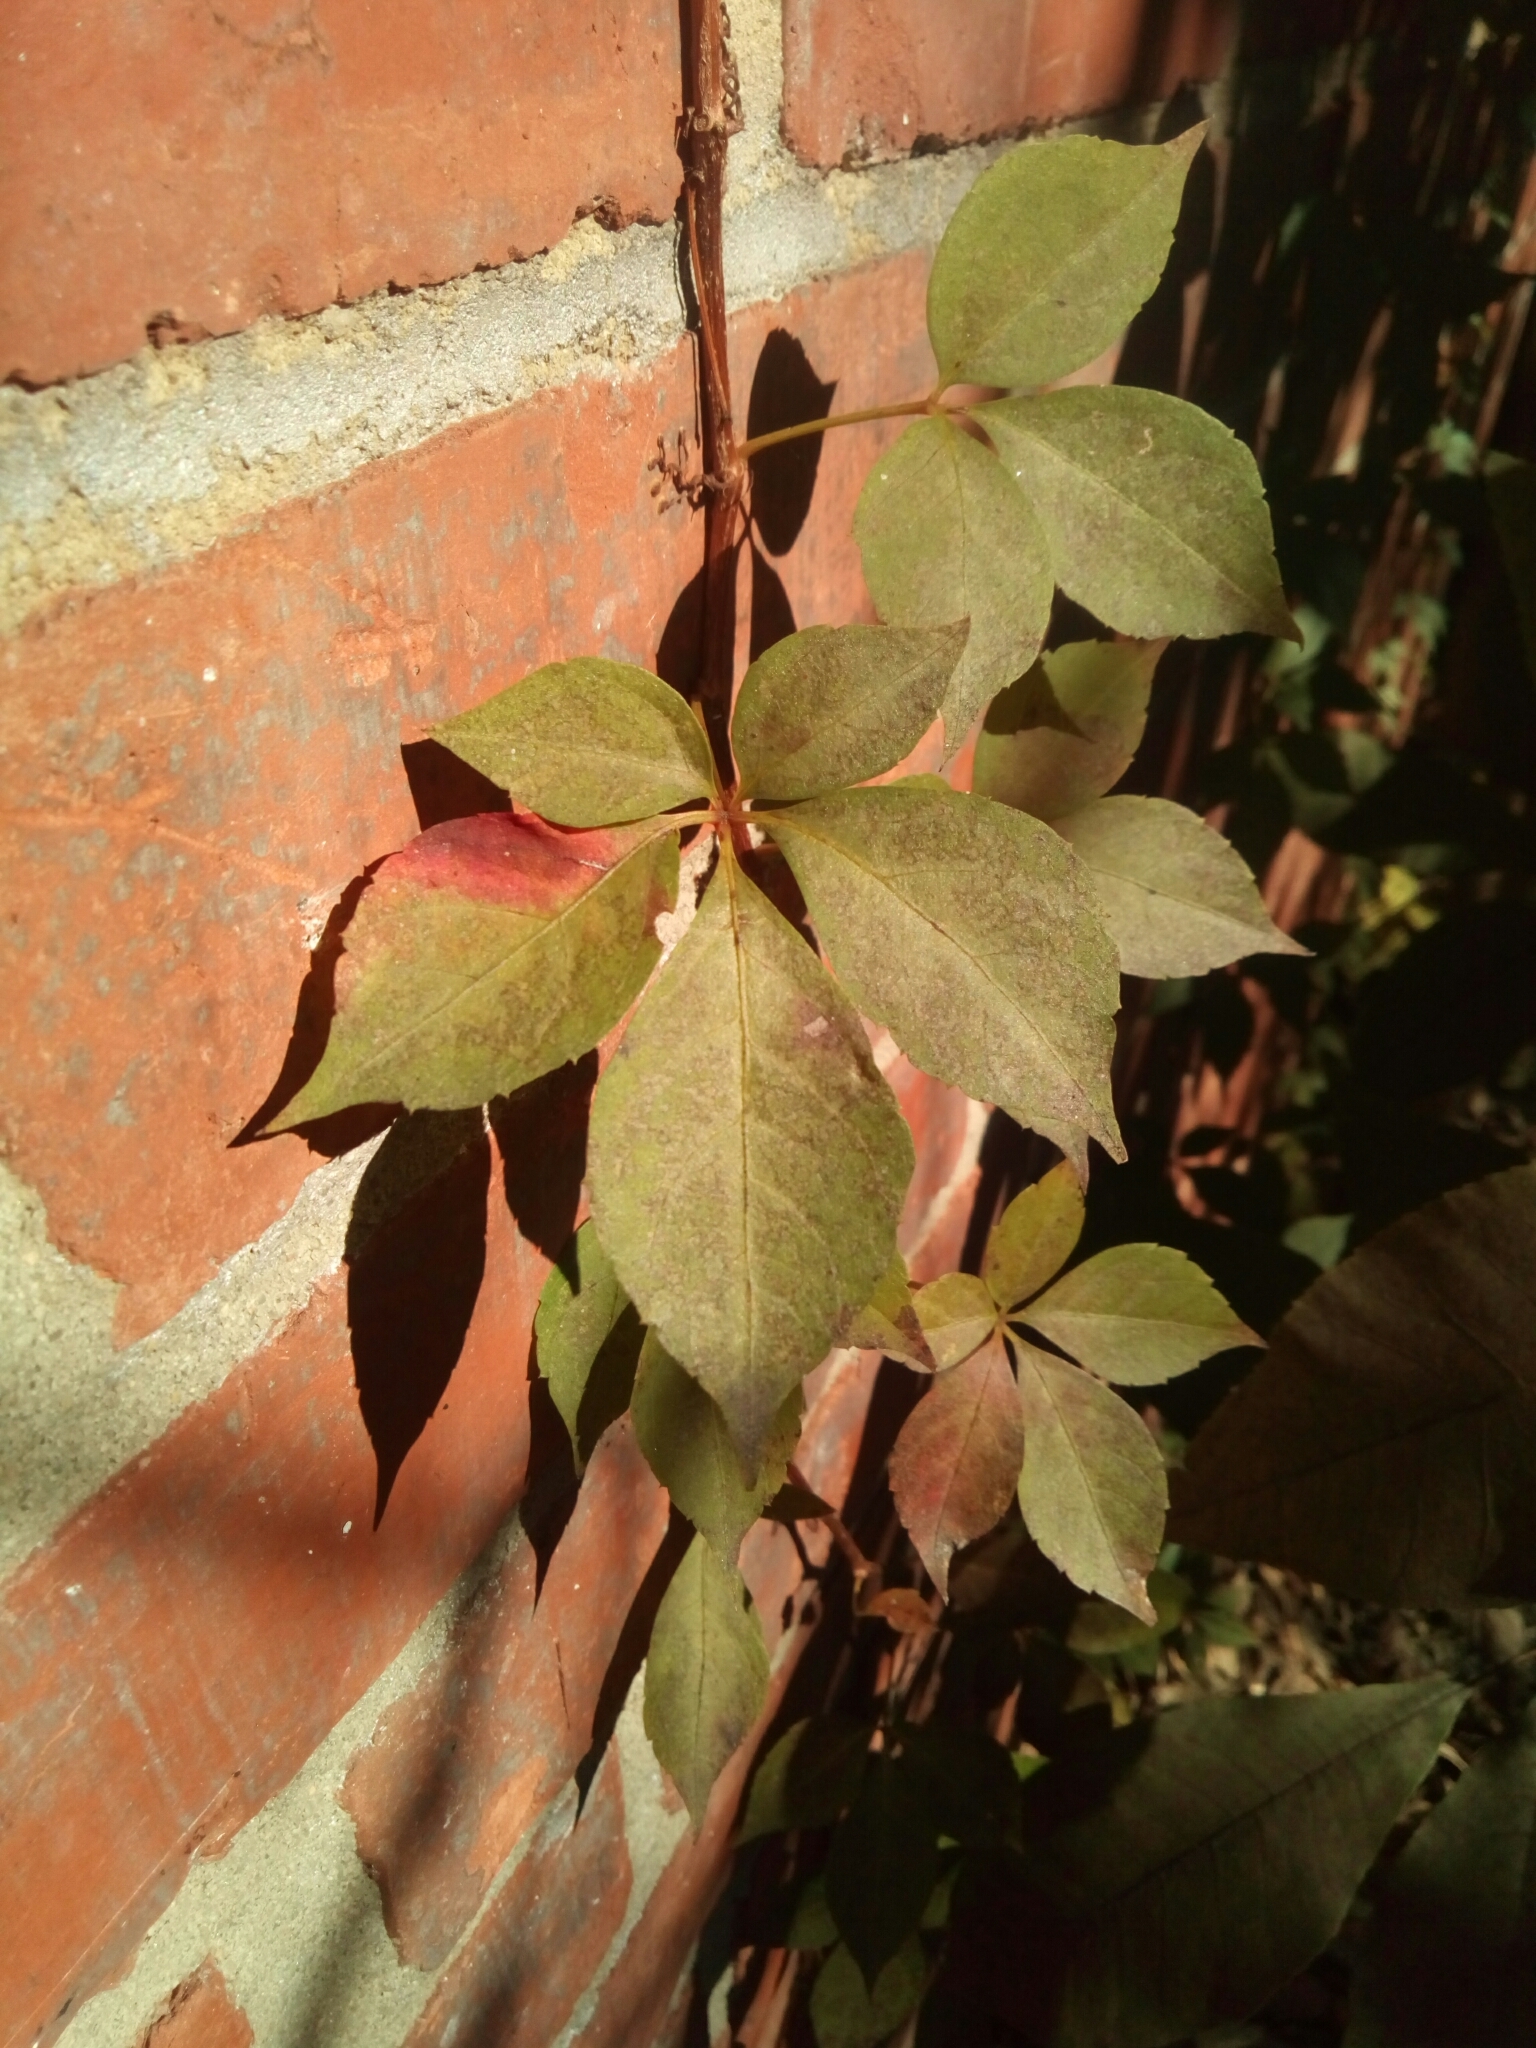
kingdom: Plantae
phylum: Tracheophyta
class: Magnoliopsida
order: Vitales
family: Vitaceae
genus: Parthenocissus
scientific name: Parthenocissus quinquefolia
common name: Virginia-creeper
